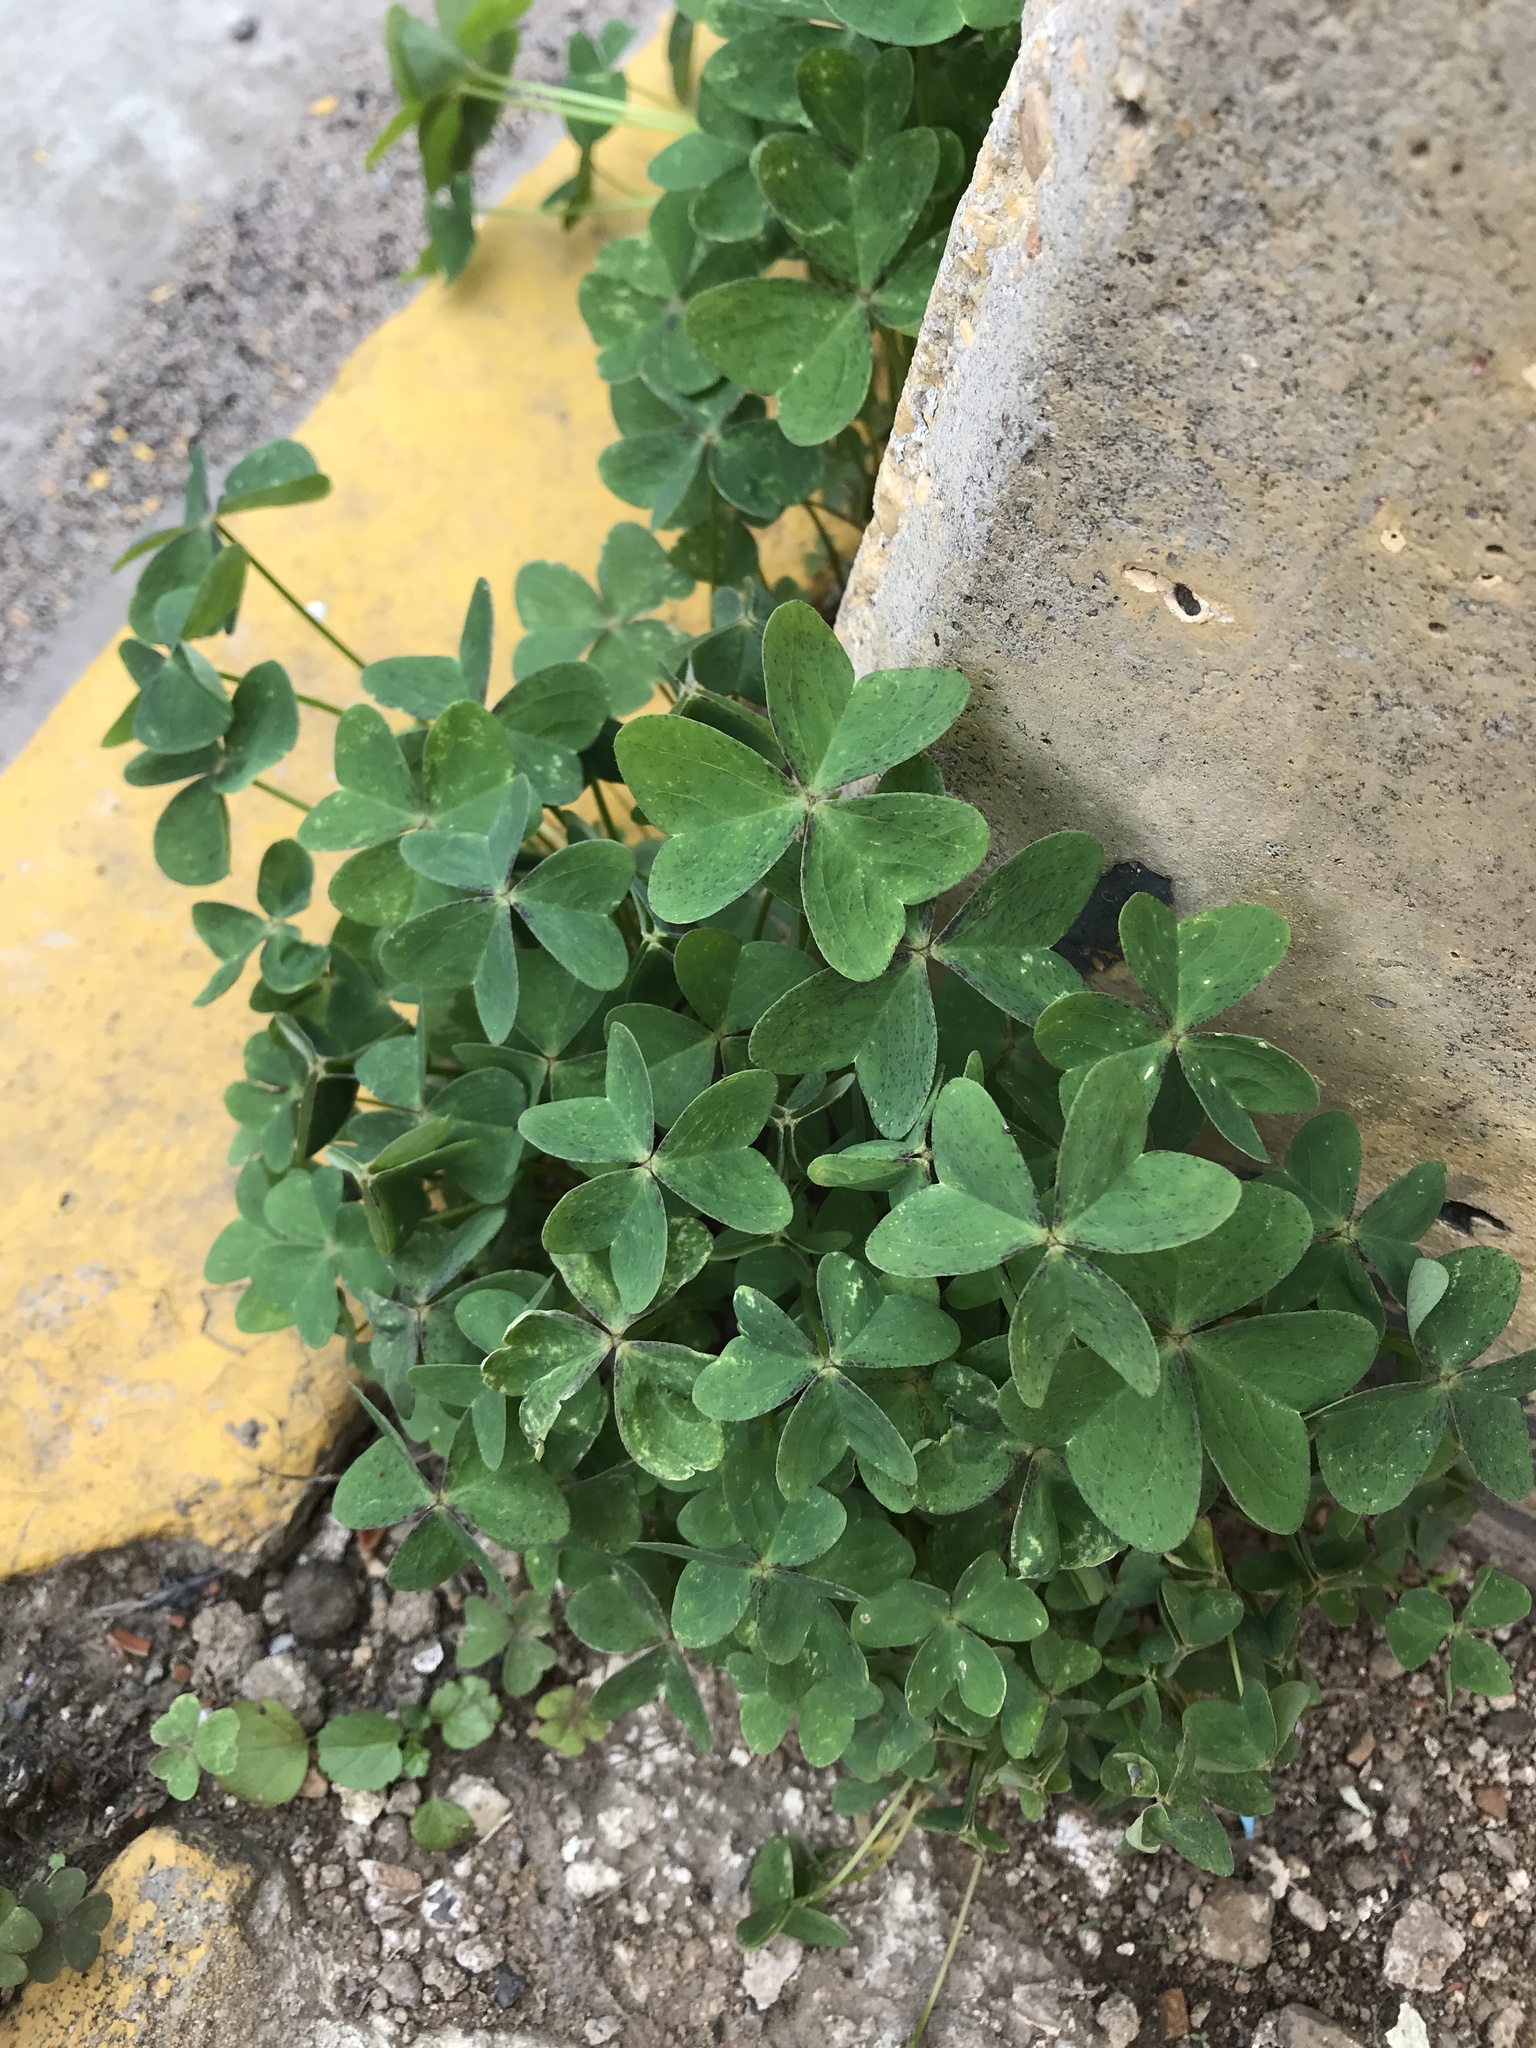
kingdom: Plantae
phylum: Tracheophyta
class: Magnoliopsida
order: Oxalidales
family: Oxalidaceae
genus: Oxalis
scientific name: Oxalis latifolia
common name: Garden pink-sorrel
